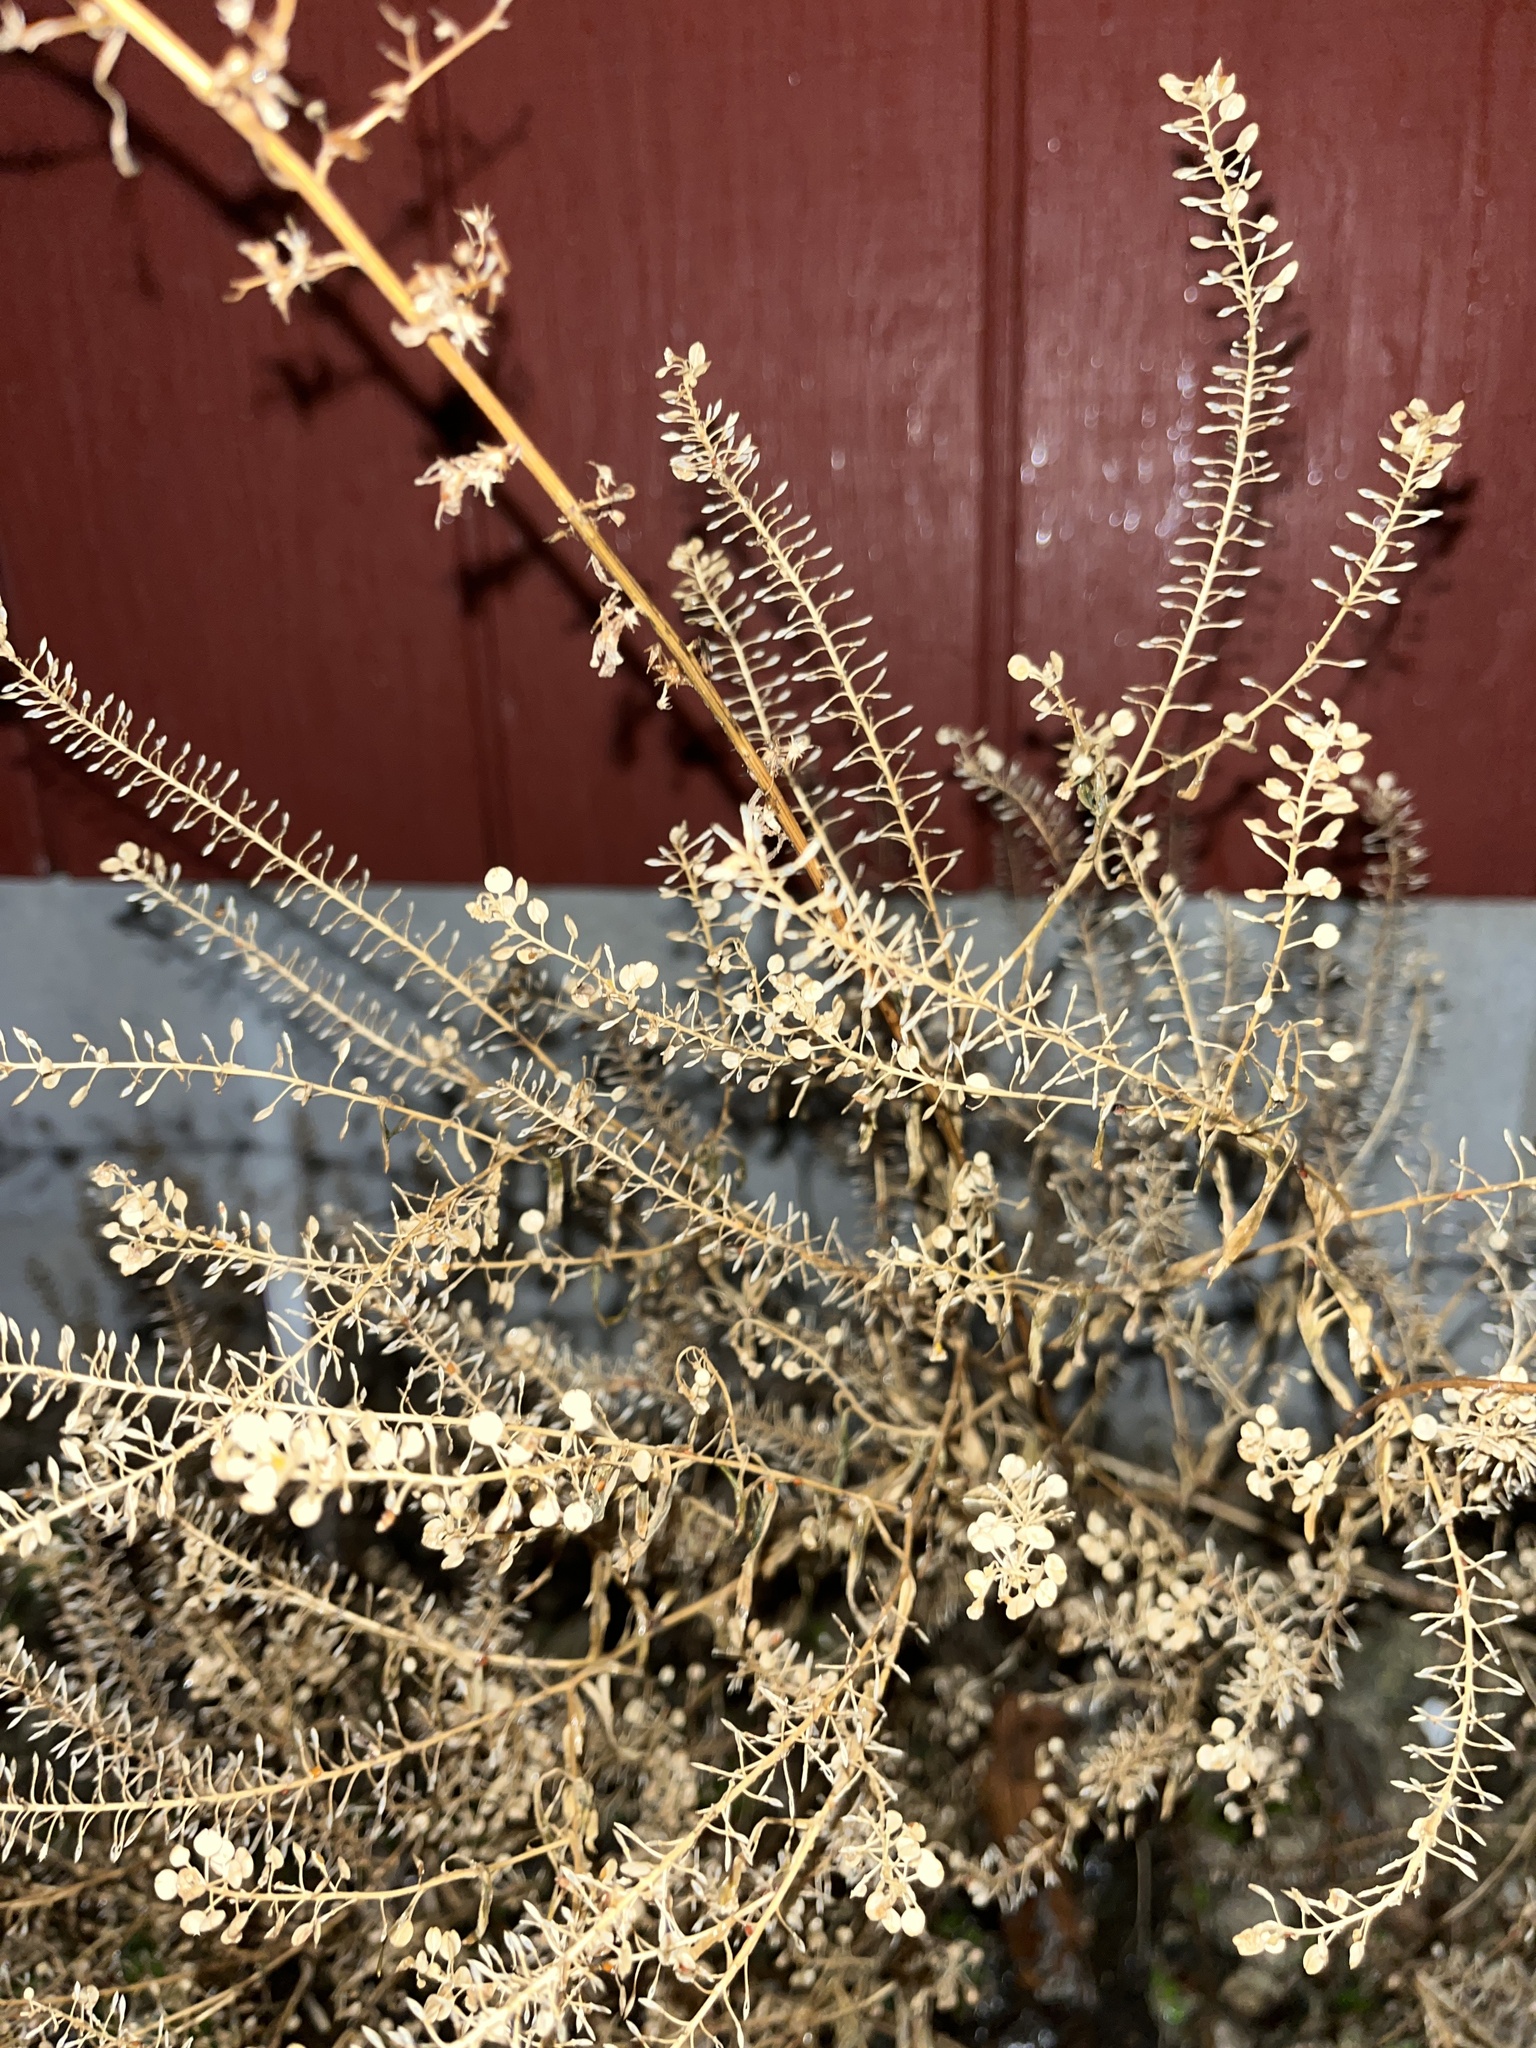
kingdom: Plantae
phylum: Tracheophyta
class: Magnoliopsida
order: Brassicales
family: Brassicaceae
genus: Lepidium
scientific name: Lepidium virginicum
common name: Least pepperwort
